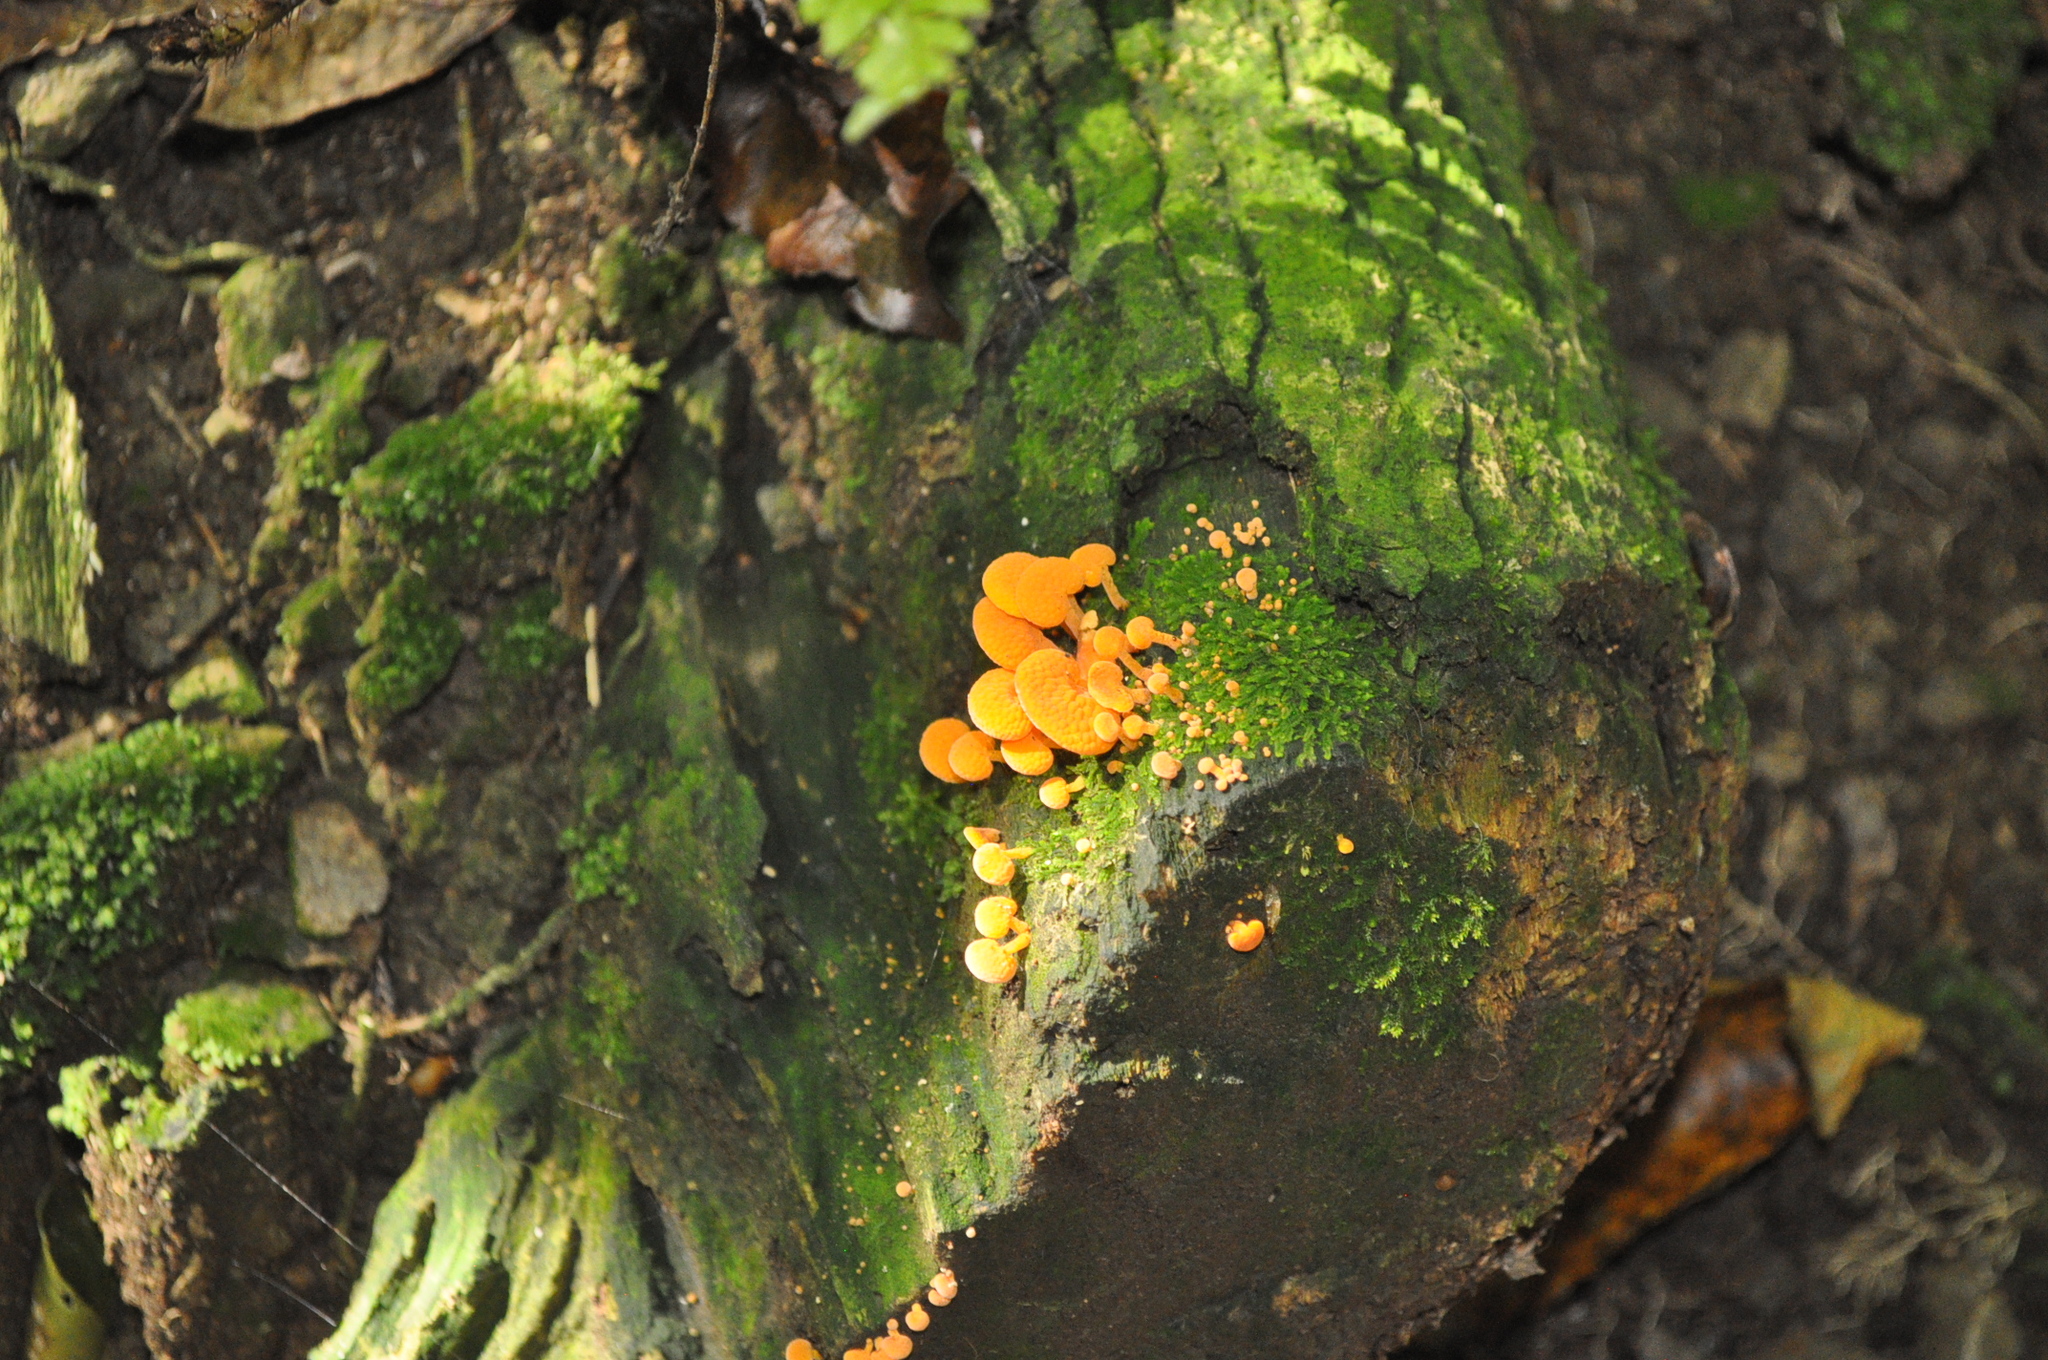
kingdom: Fungi
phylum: Basidiomycota
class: Agaricomycetes
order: Agaricales
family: Mycenaceae
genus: Favolaschia
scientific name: Favolaschia claudopus
